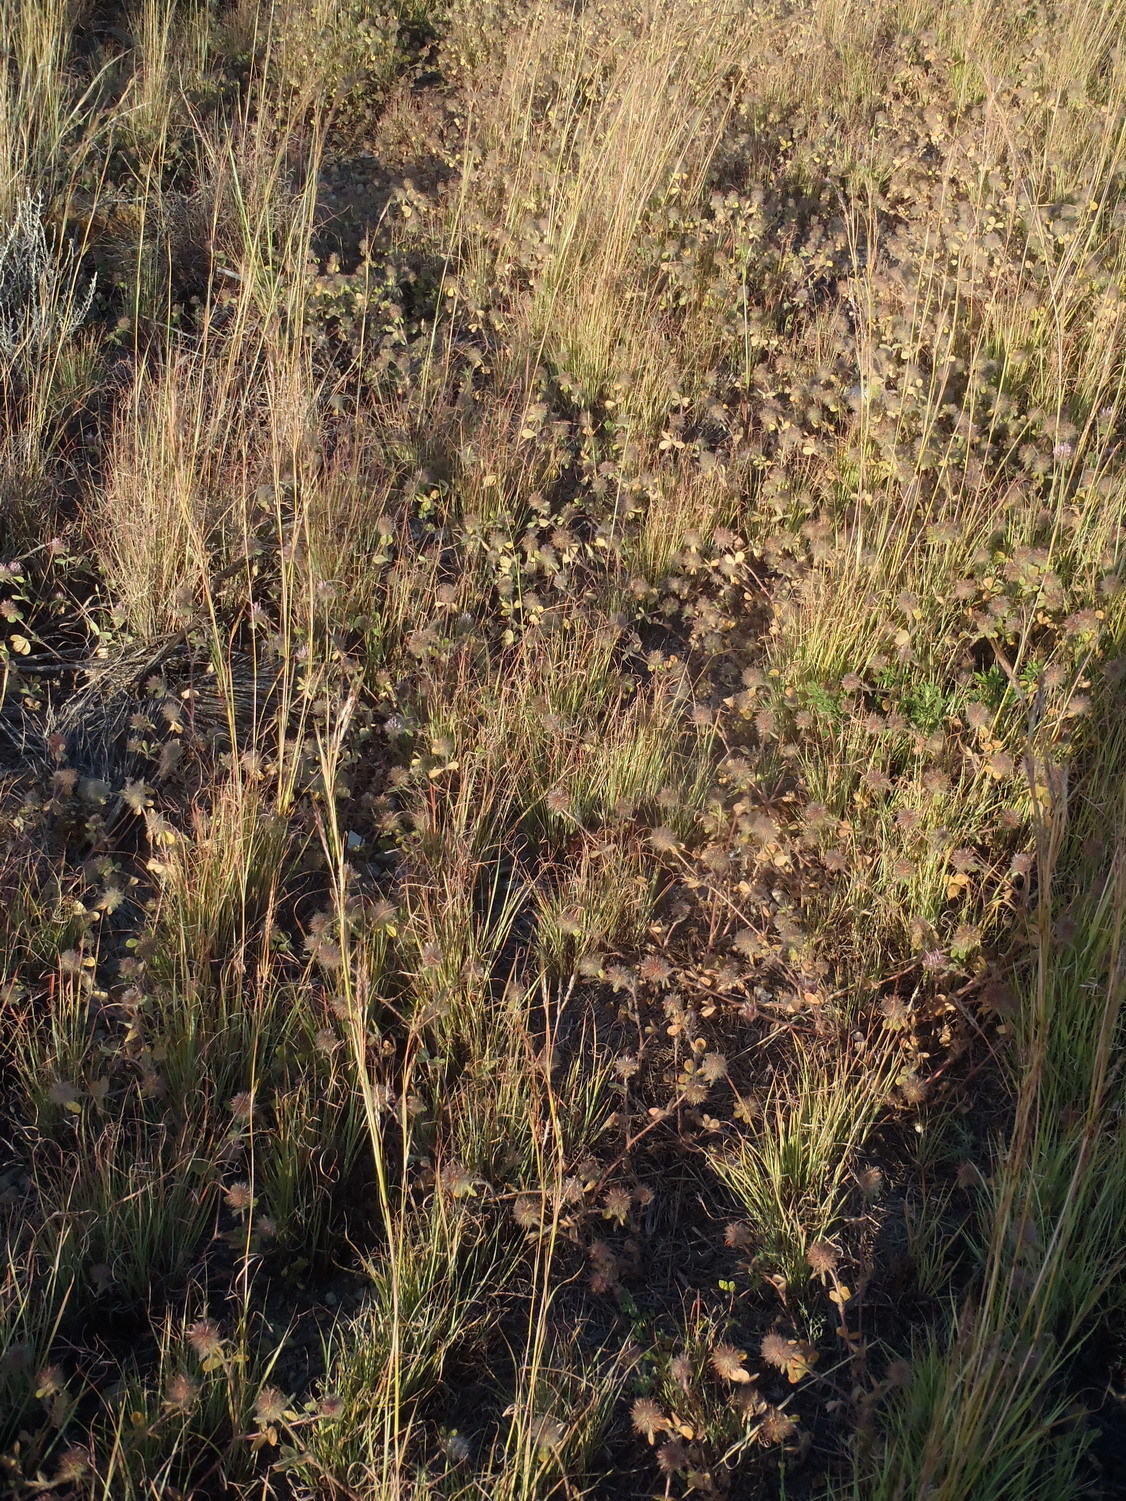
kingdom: Plantae
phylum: Tracheophyta
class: Magnoliopsida
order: Fabales
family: Fabaceae
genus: Trifolium
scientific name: Trifolium hirtum
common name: Rose clover
